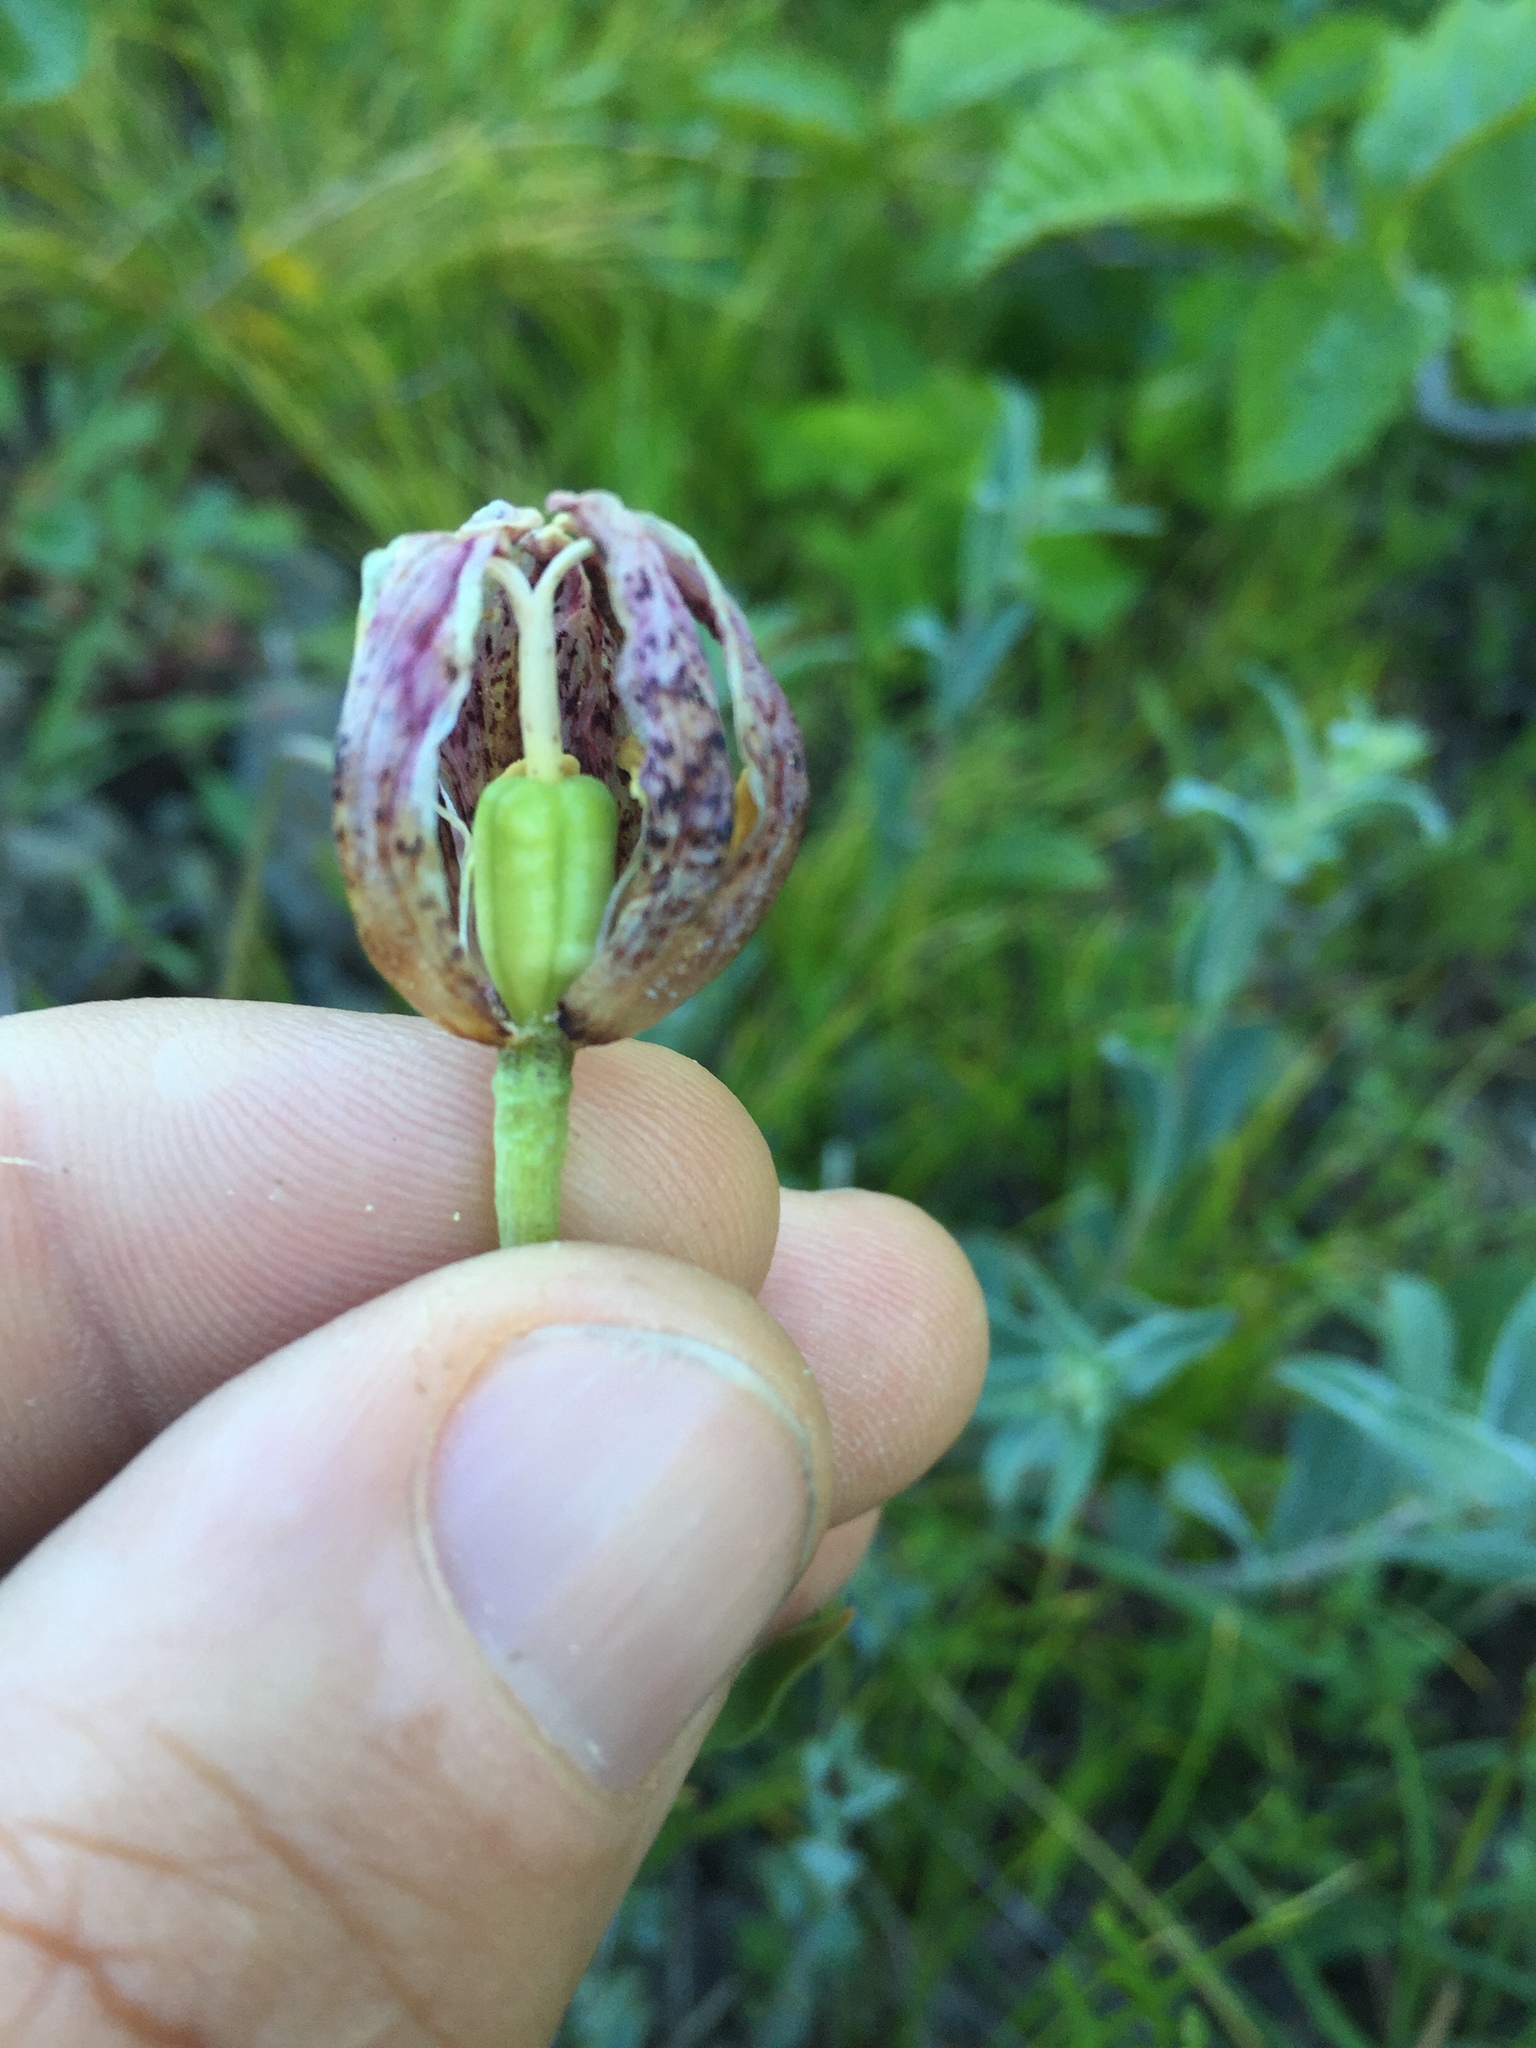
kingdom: Plantae
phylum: Tracheophyta
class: Liliopsida
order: Liliales
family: Liliaceae
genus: Fritillaria
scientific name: Fritillaria purdyi
